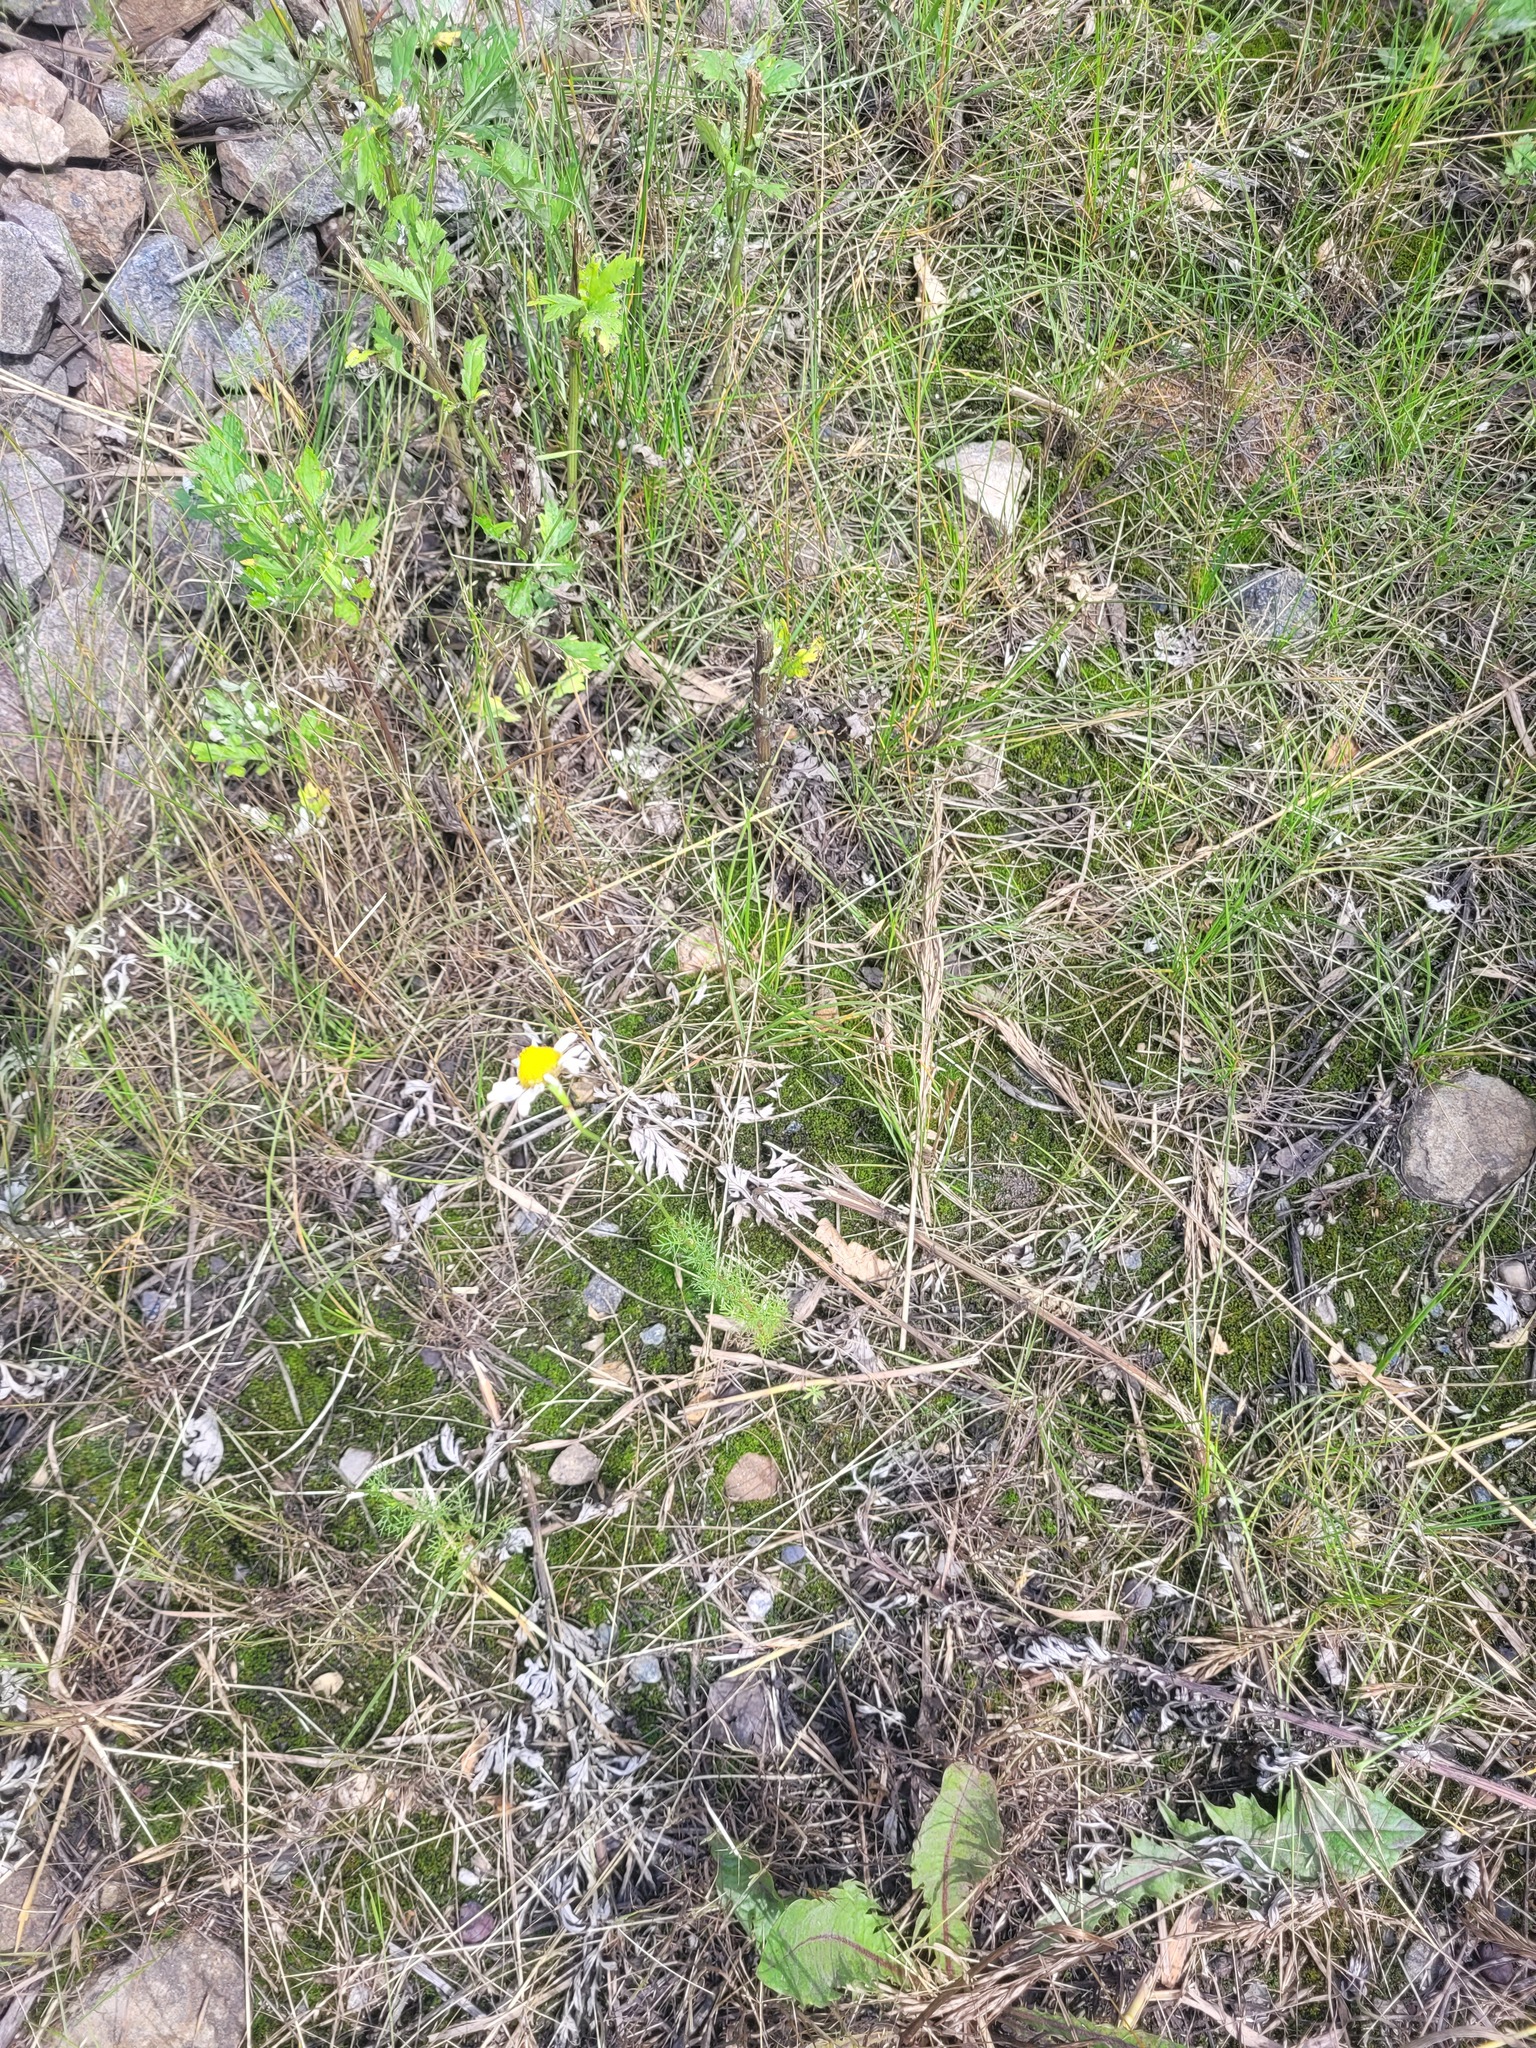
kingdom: Plantae
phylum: Tracheophyta
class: Magnoliopsida
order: Asterales
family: Asteraceae
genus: Tripleurospermum
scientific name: Tripleurospermum inodorum
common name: Scentless mayweed
